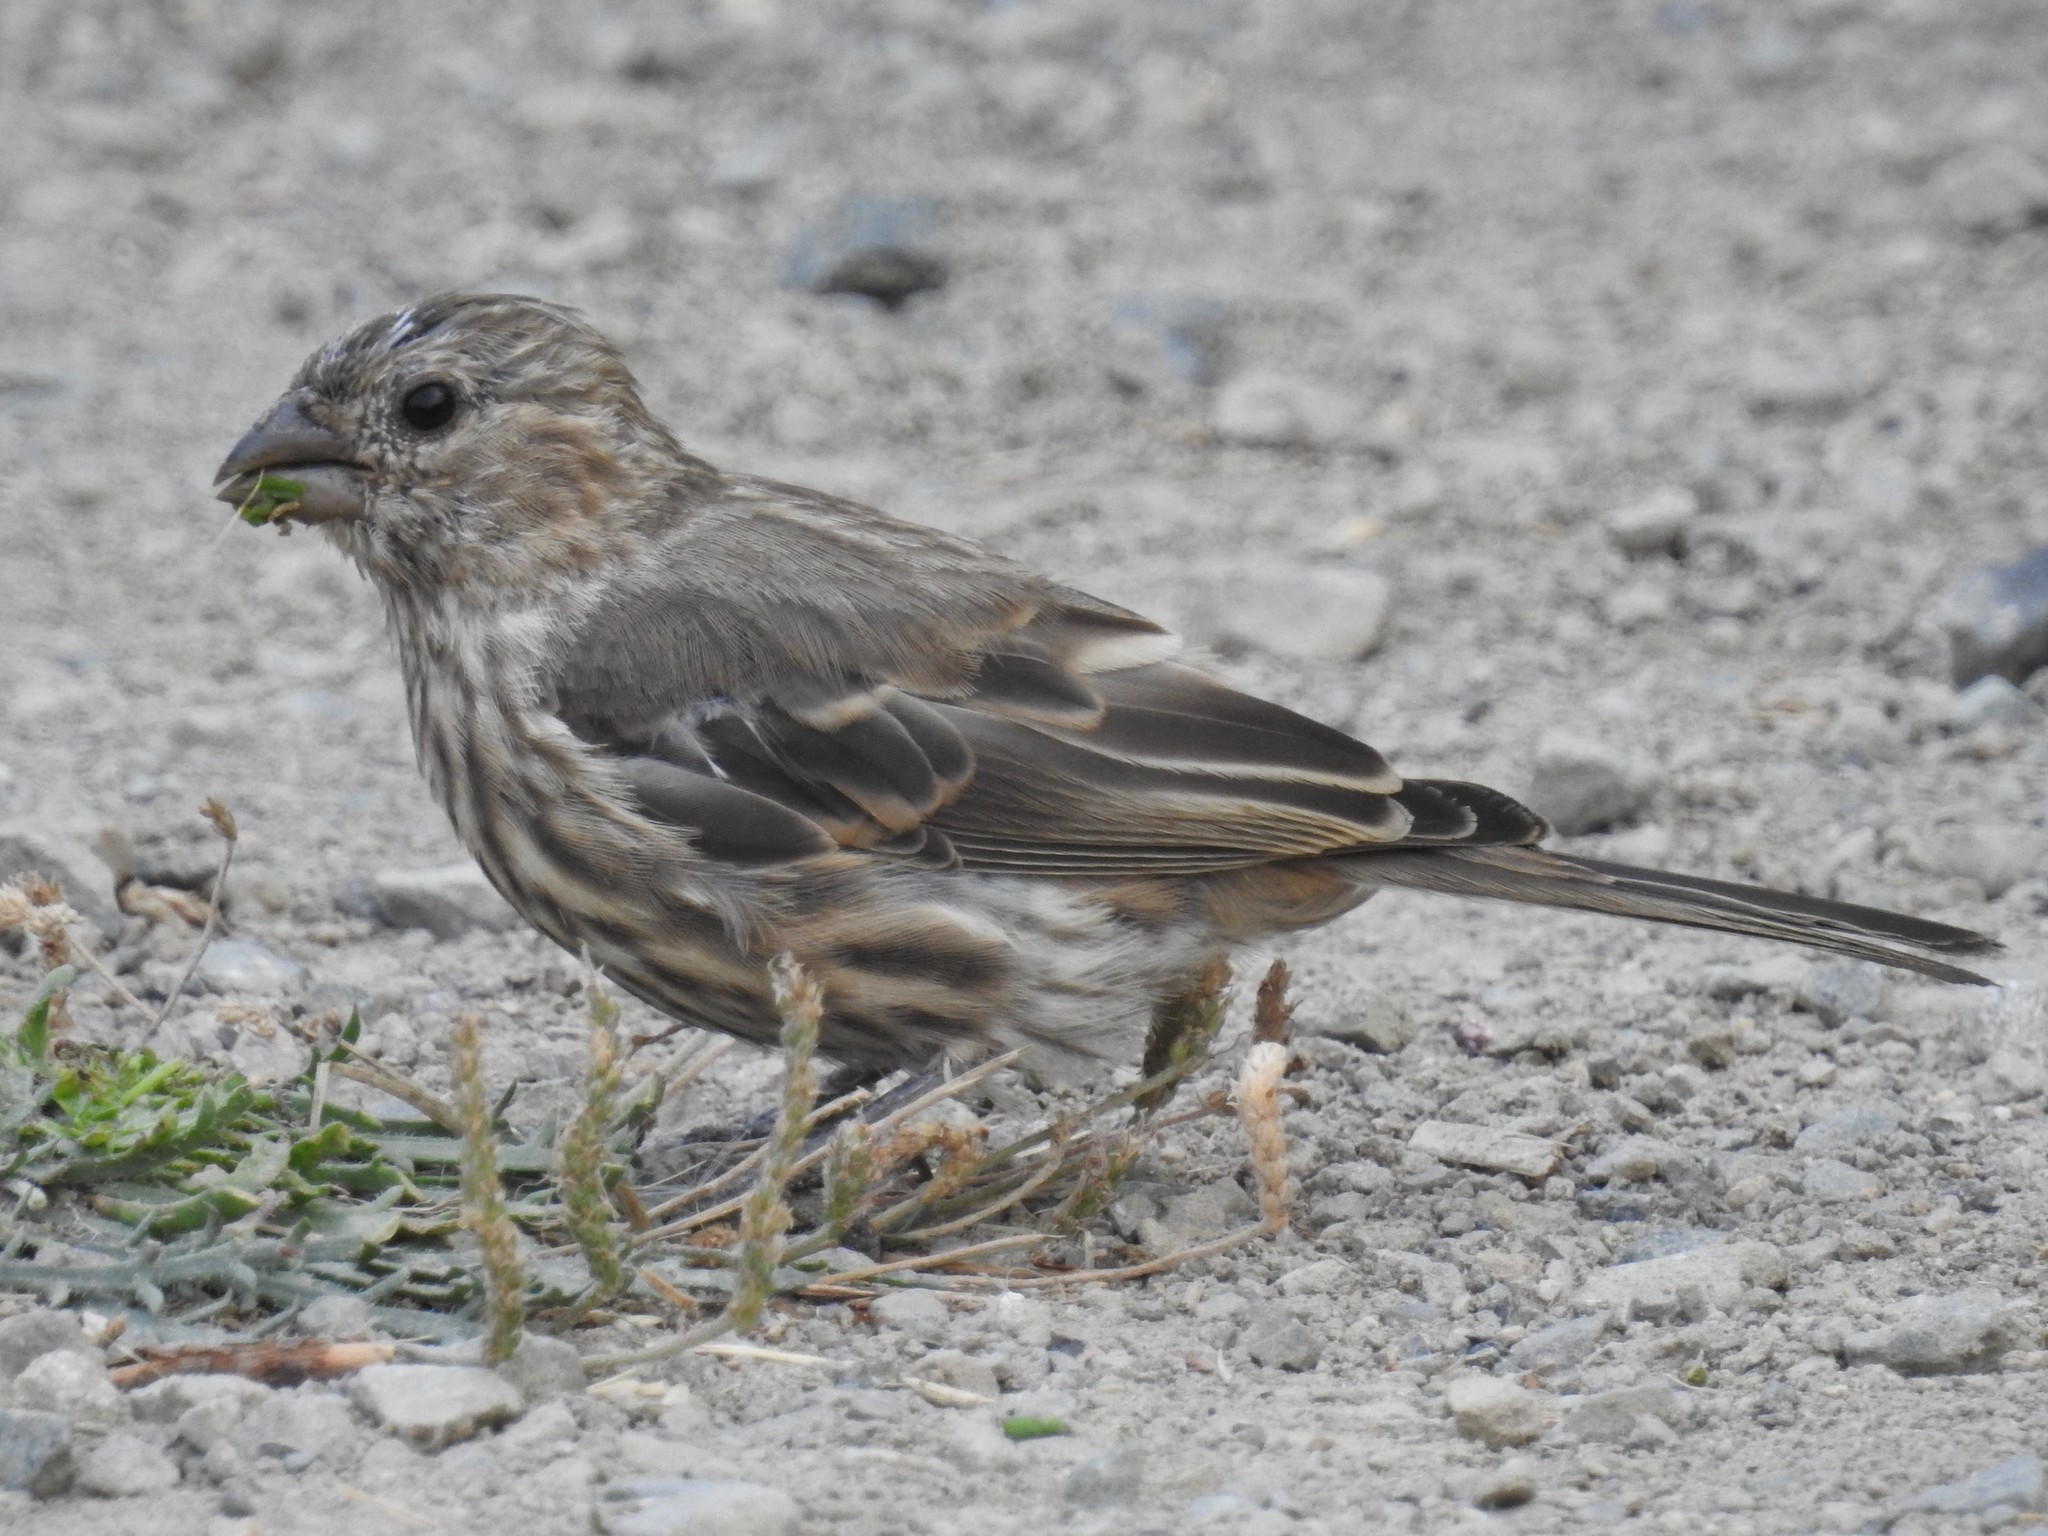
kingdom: Animalia
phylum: Chordata
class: Aves
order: Passeriformes
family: Fringillidae
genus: Haemorhous
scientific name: Haemorhous mexicanus
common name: House finch
